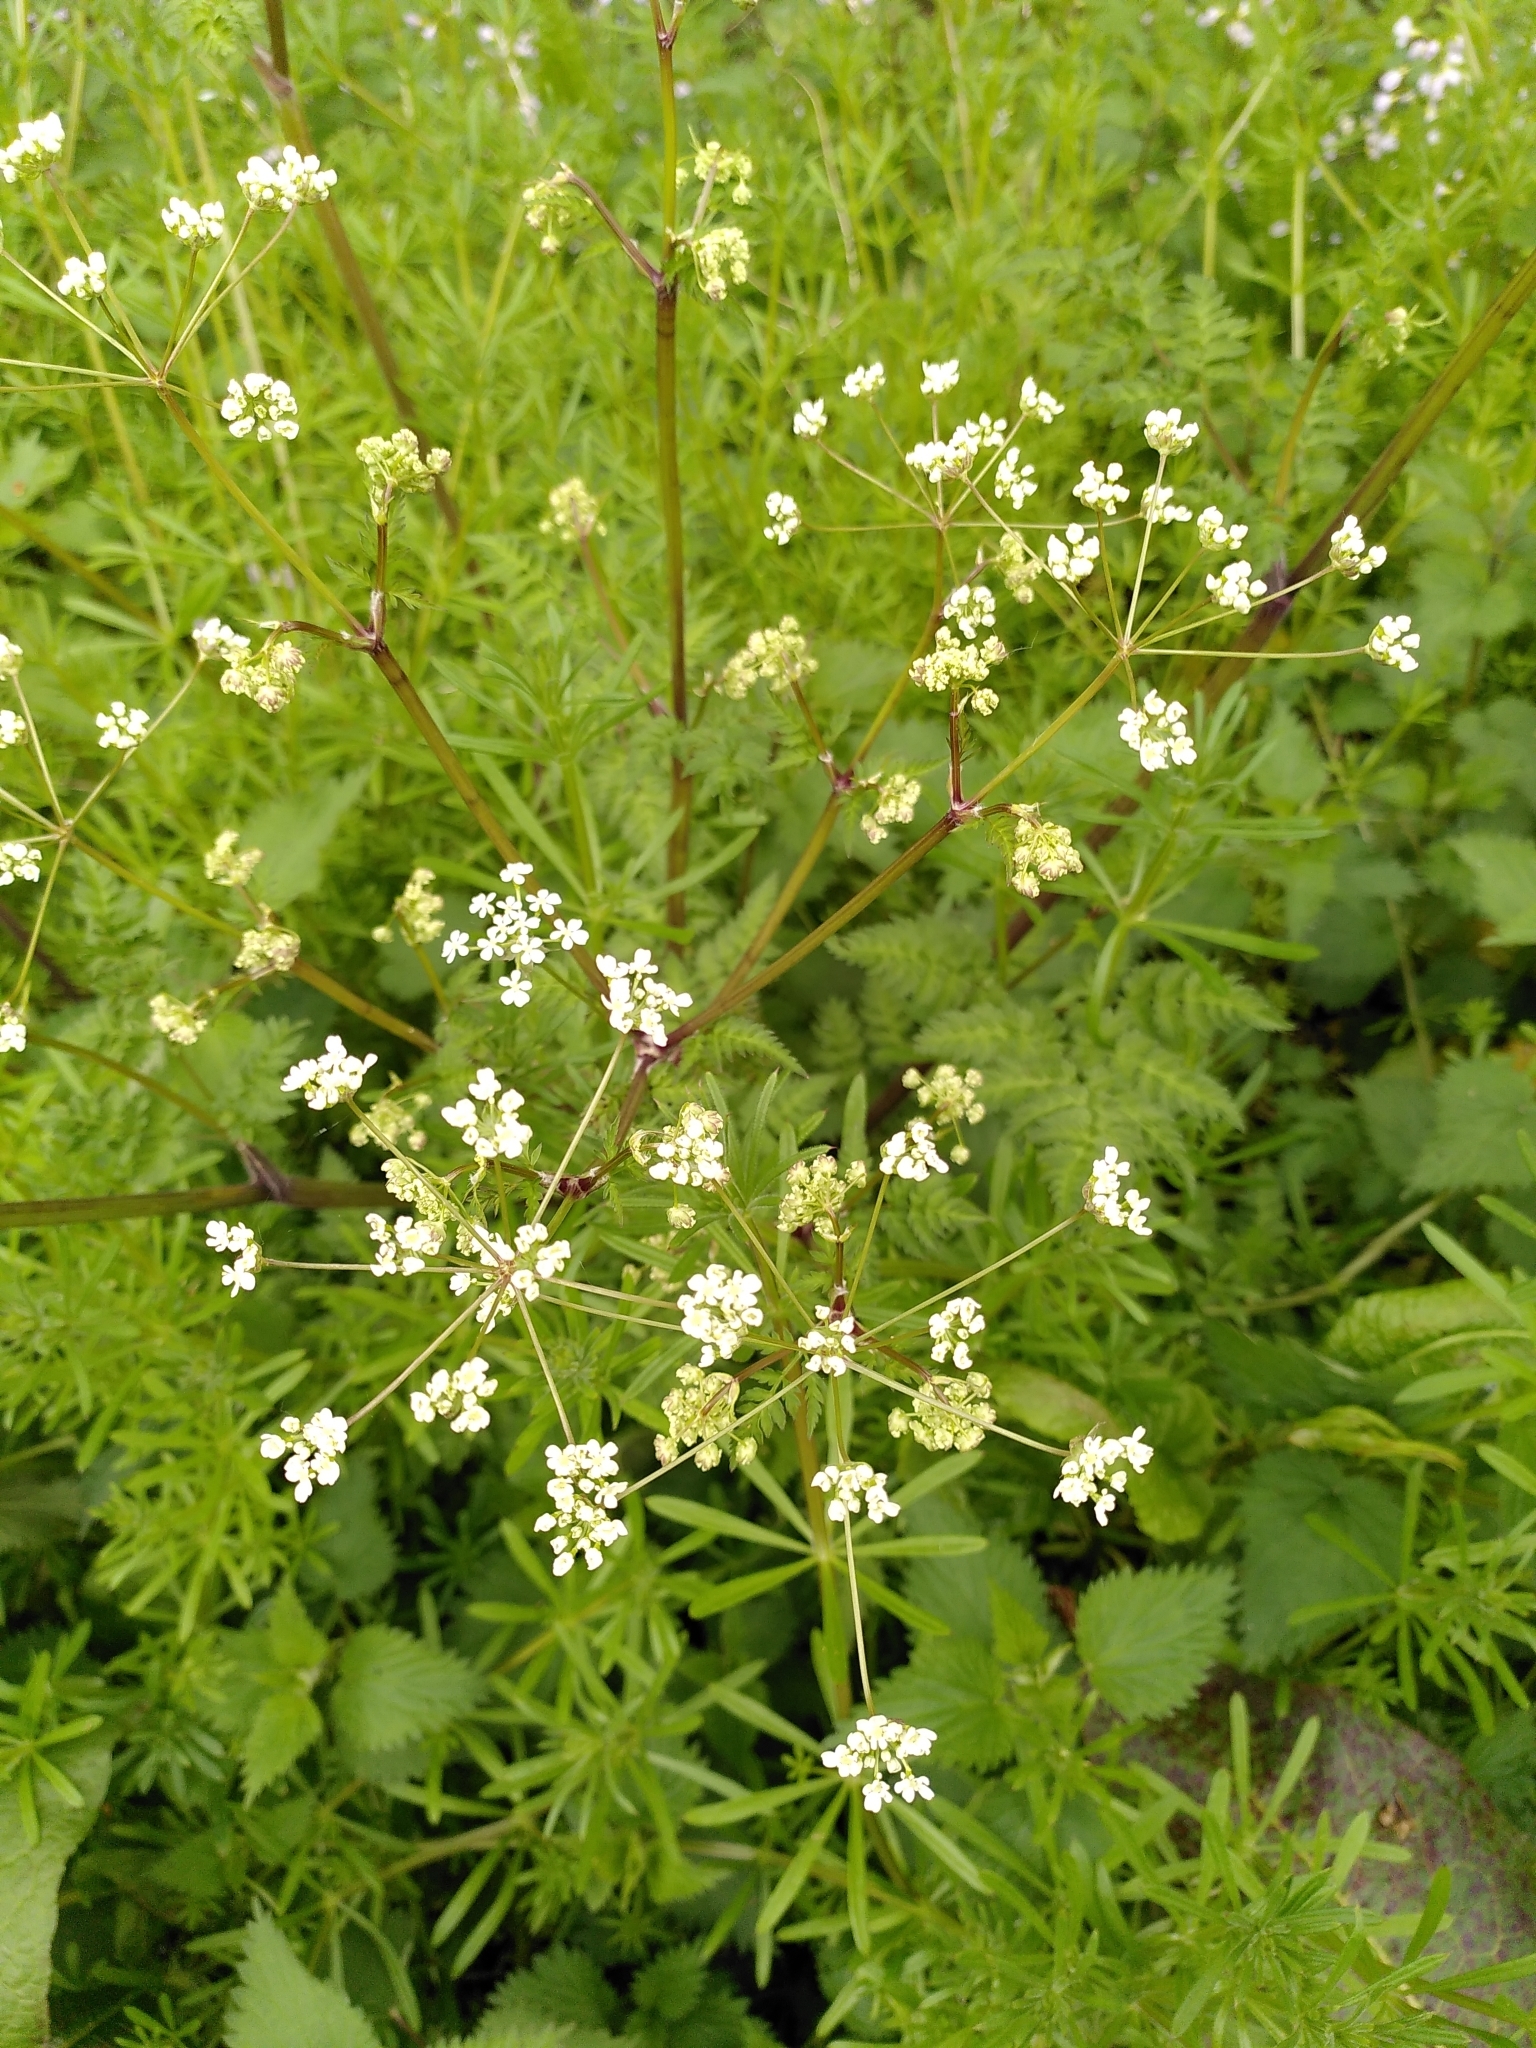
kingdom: Plantae
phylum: Tracheophyta
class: Magnoliopsida
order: Apiales
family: Apiaceae
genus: Anthriscus
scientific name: Anthriscus sylvestris
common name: Cow parsley
